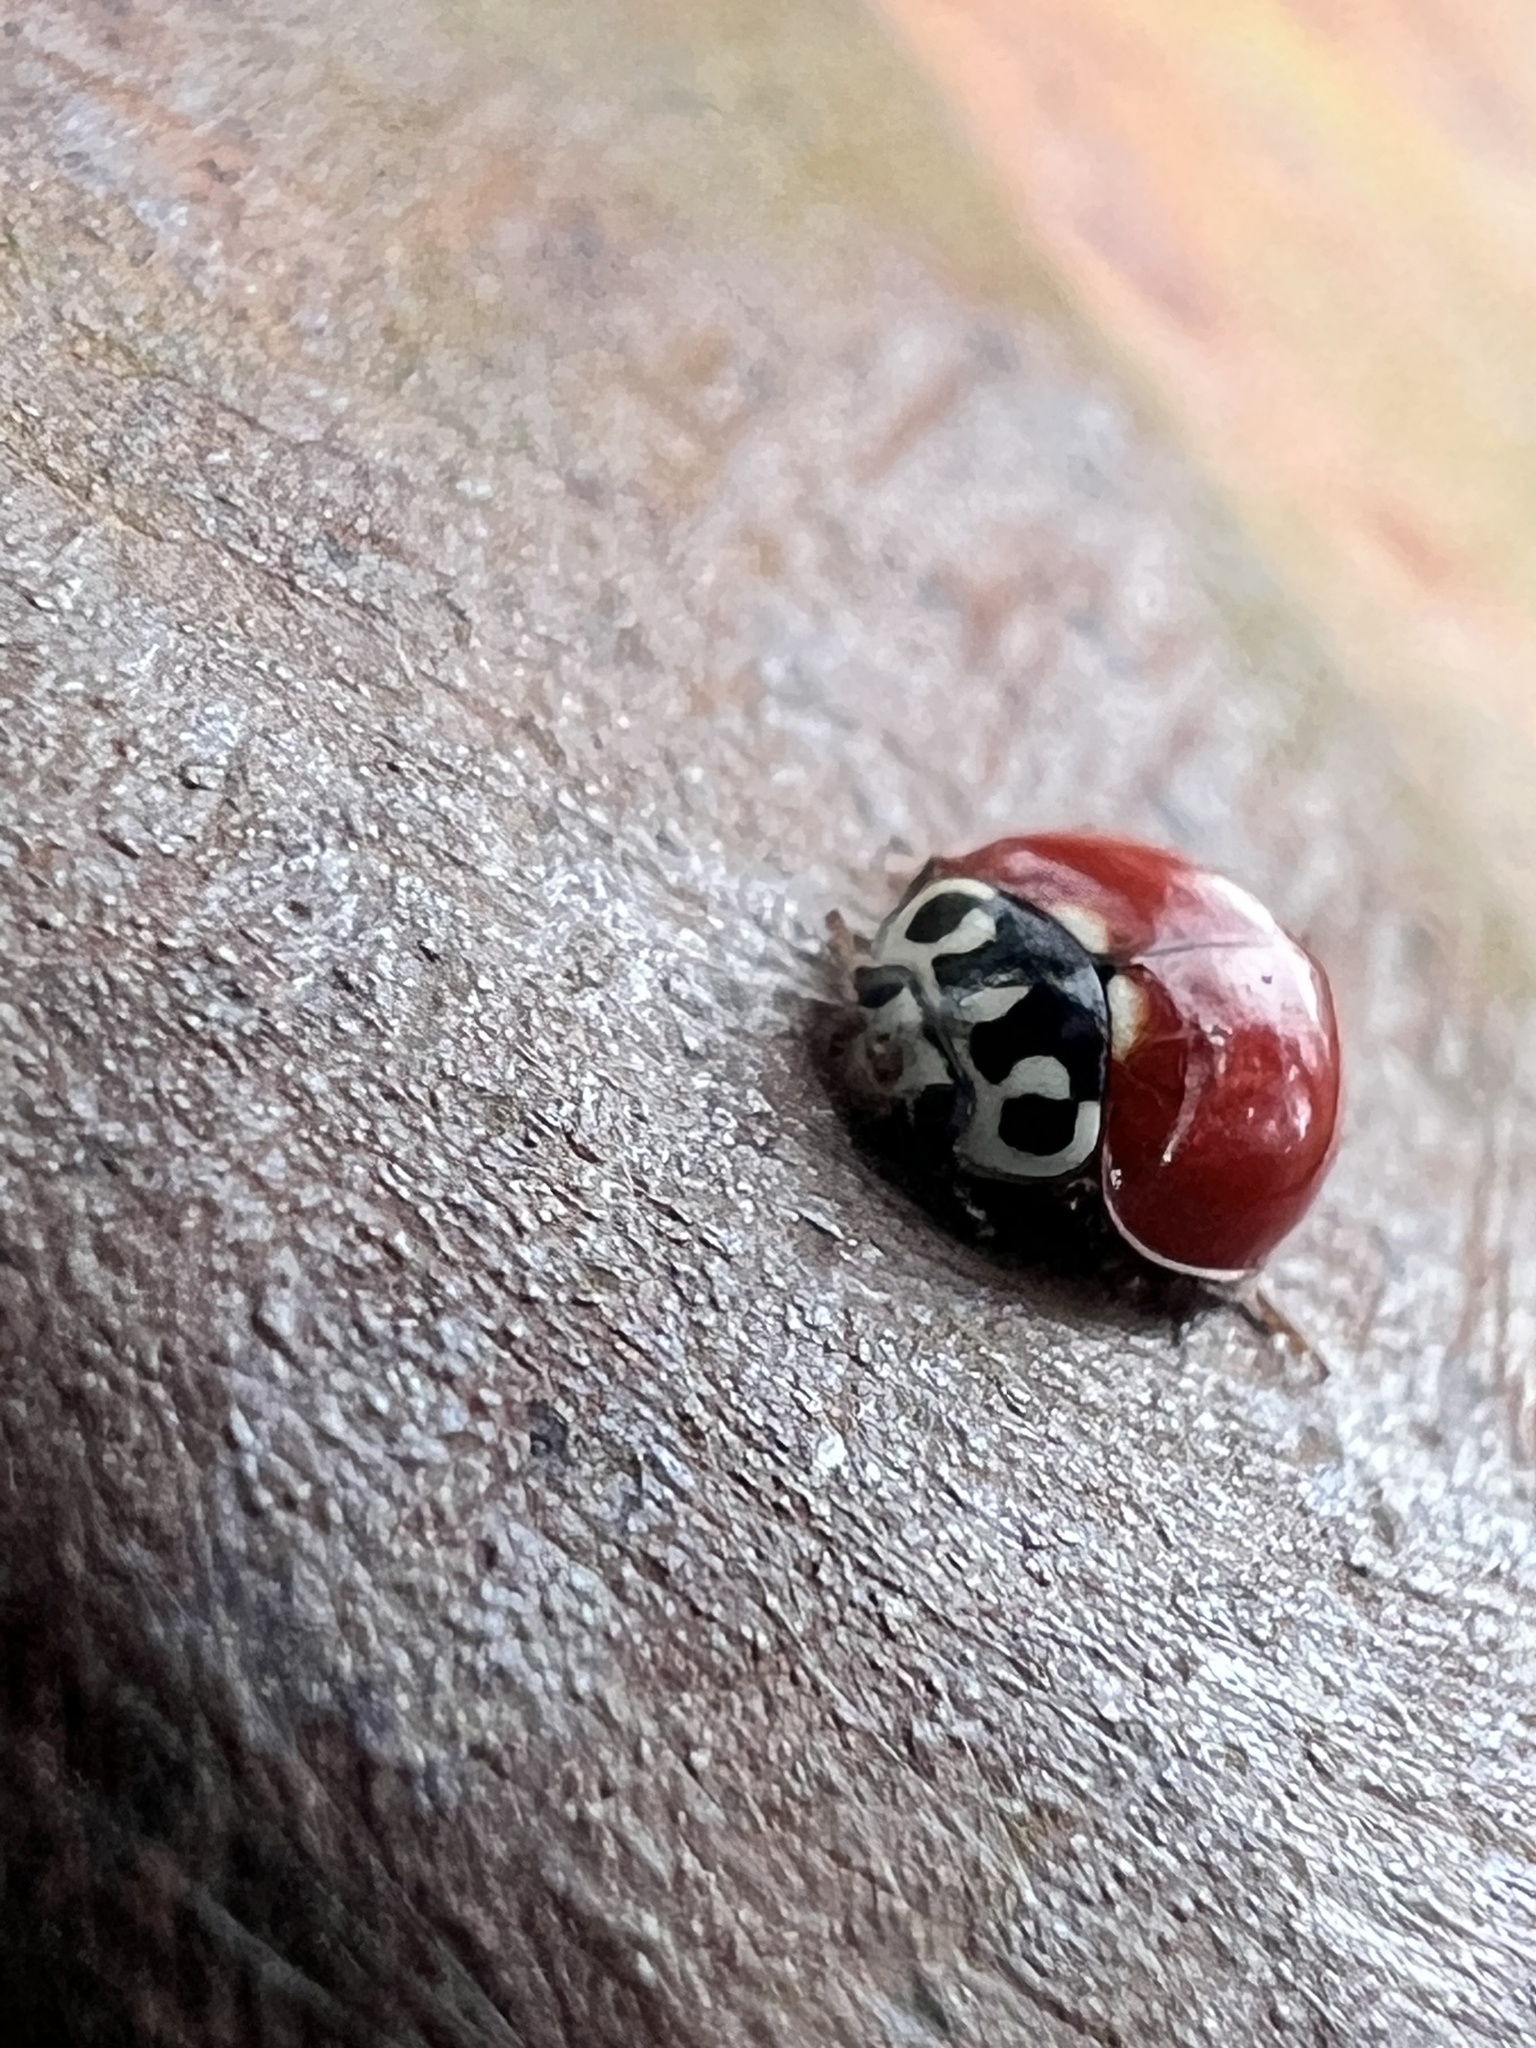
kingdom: Animalia
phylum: Arthropoda
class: Insecta
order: Coleoptera
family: Coccinellidae
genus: Cycloneda
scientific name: Cycloneda polita
